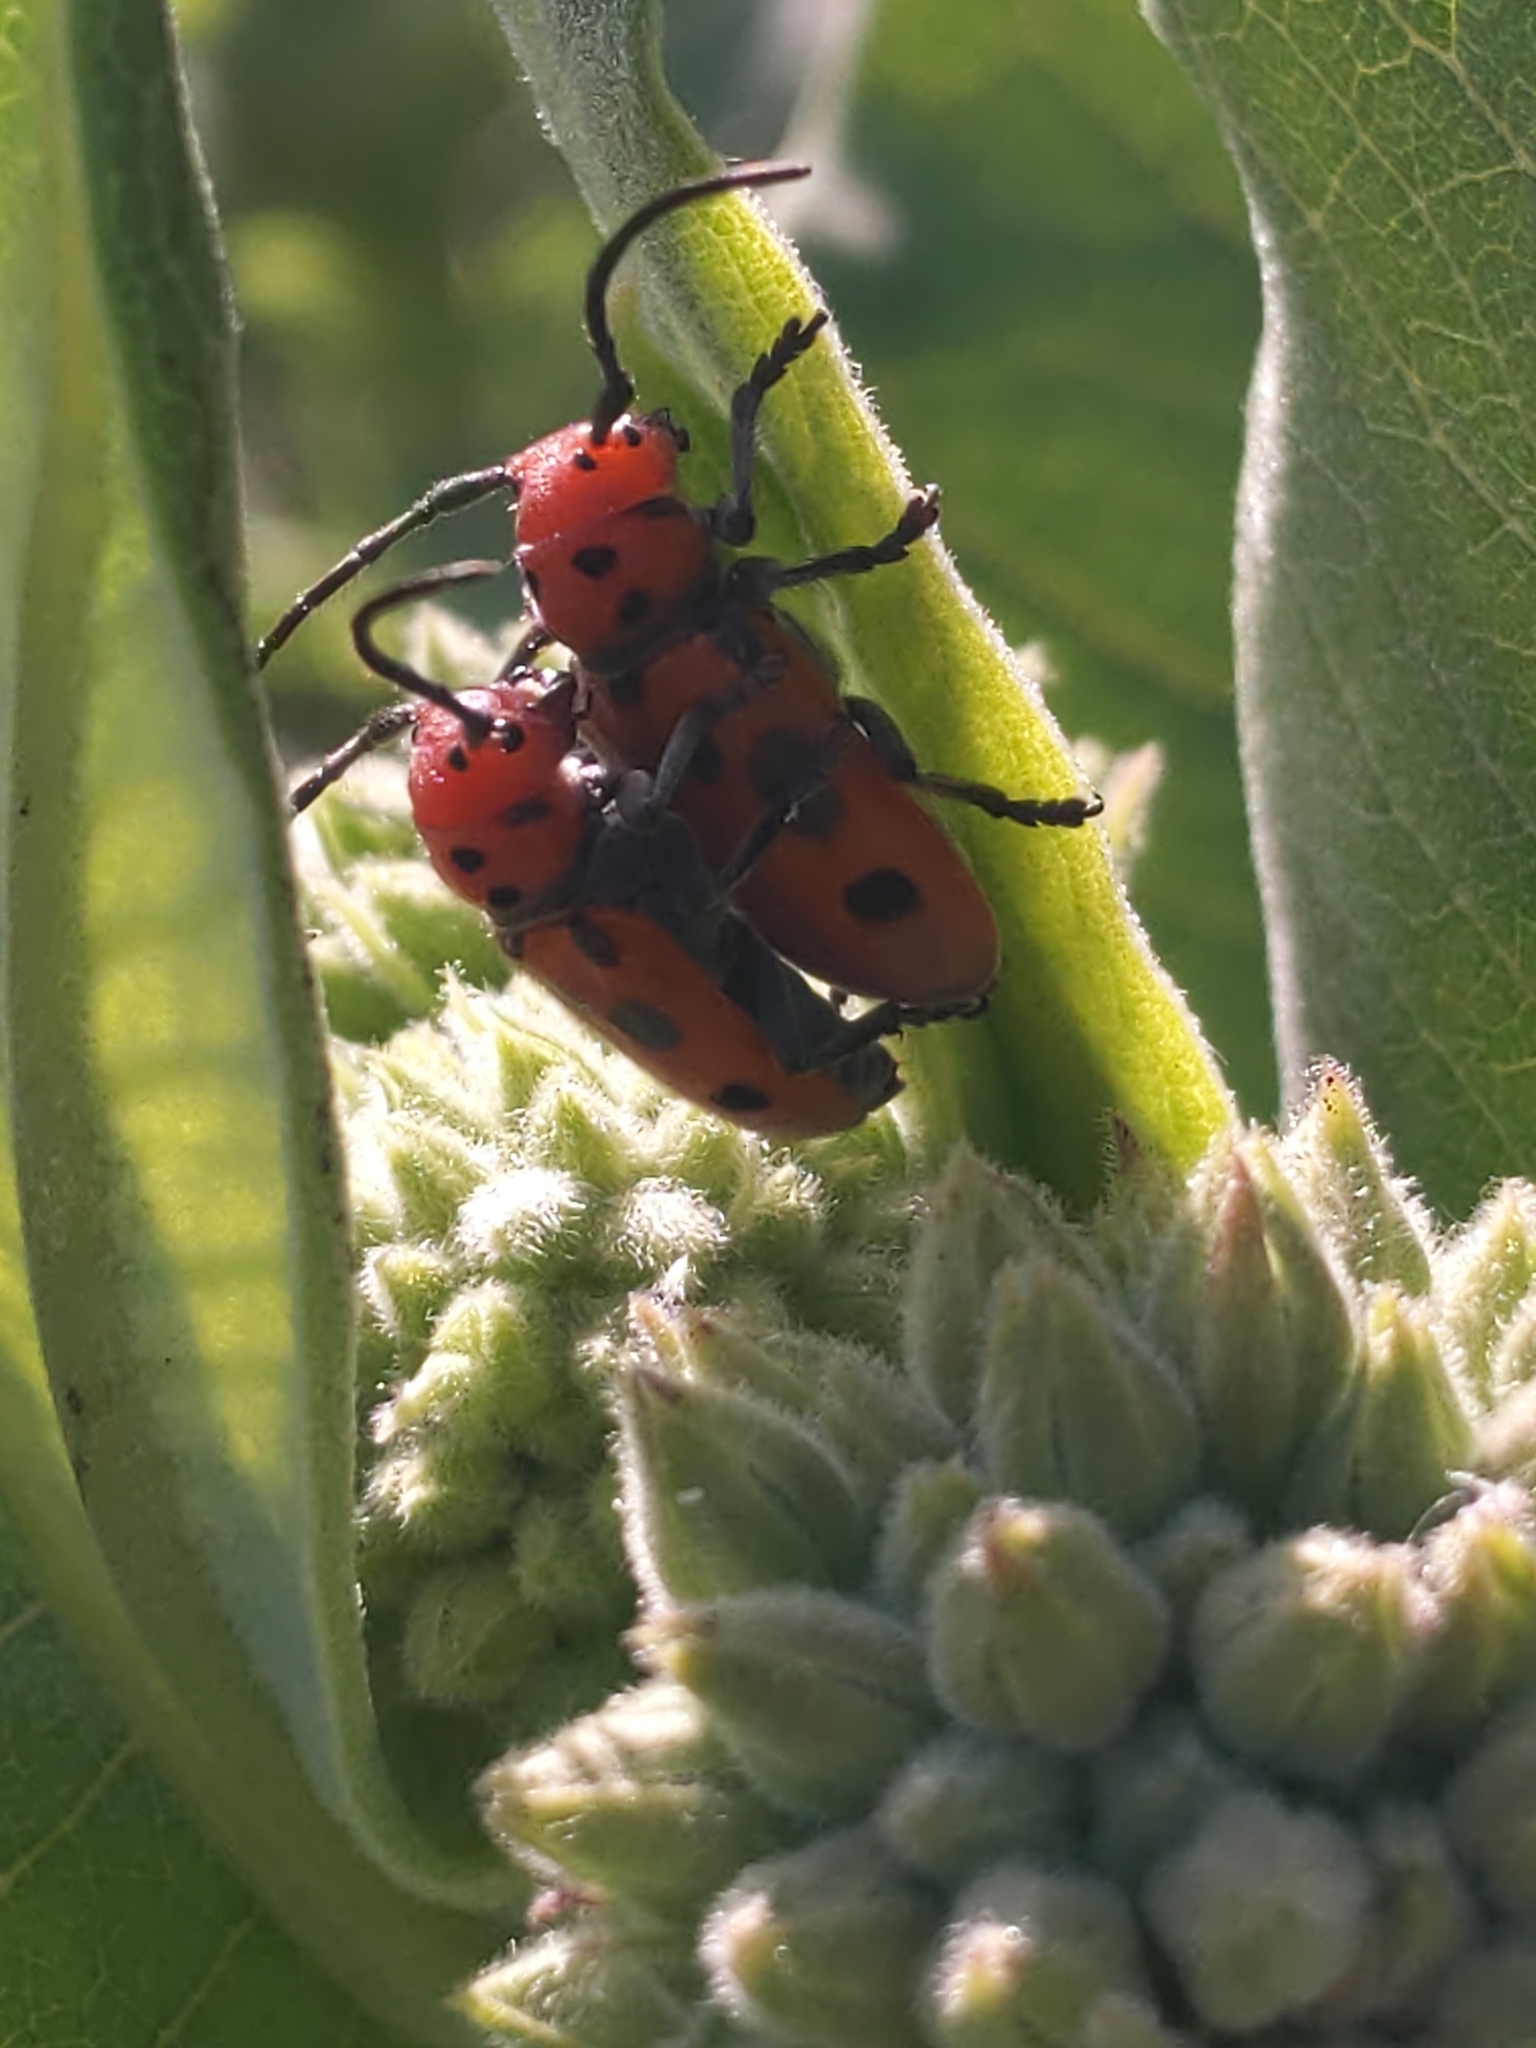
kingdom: Animalia
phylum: Arthropoda
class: Insecta
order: Coleoptera
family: Cerambycidae
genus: Tetraopes
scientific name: Tetraopes tetrophthalmus
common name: Red milkweed beetle
